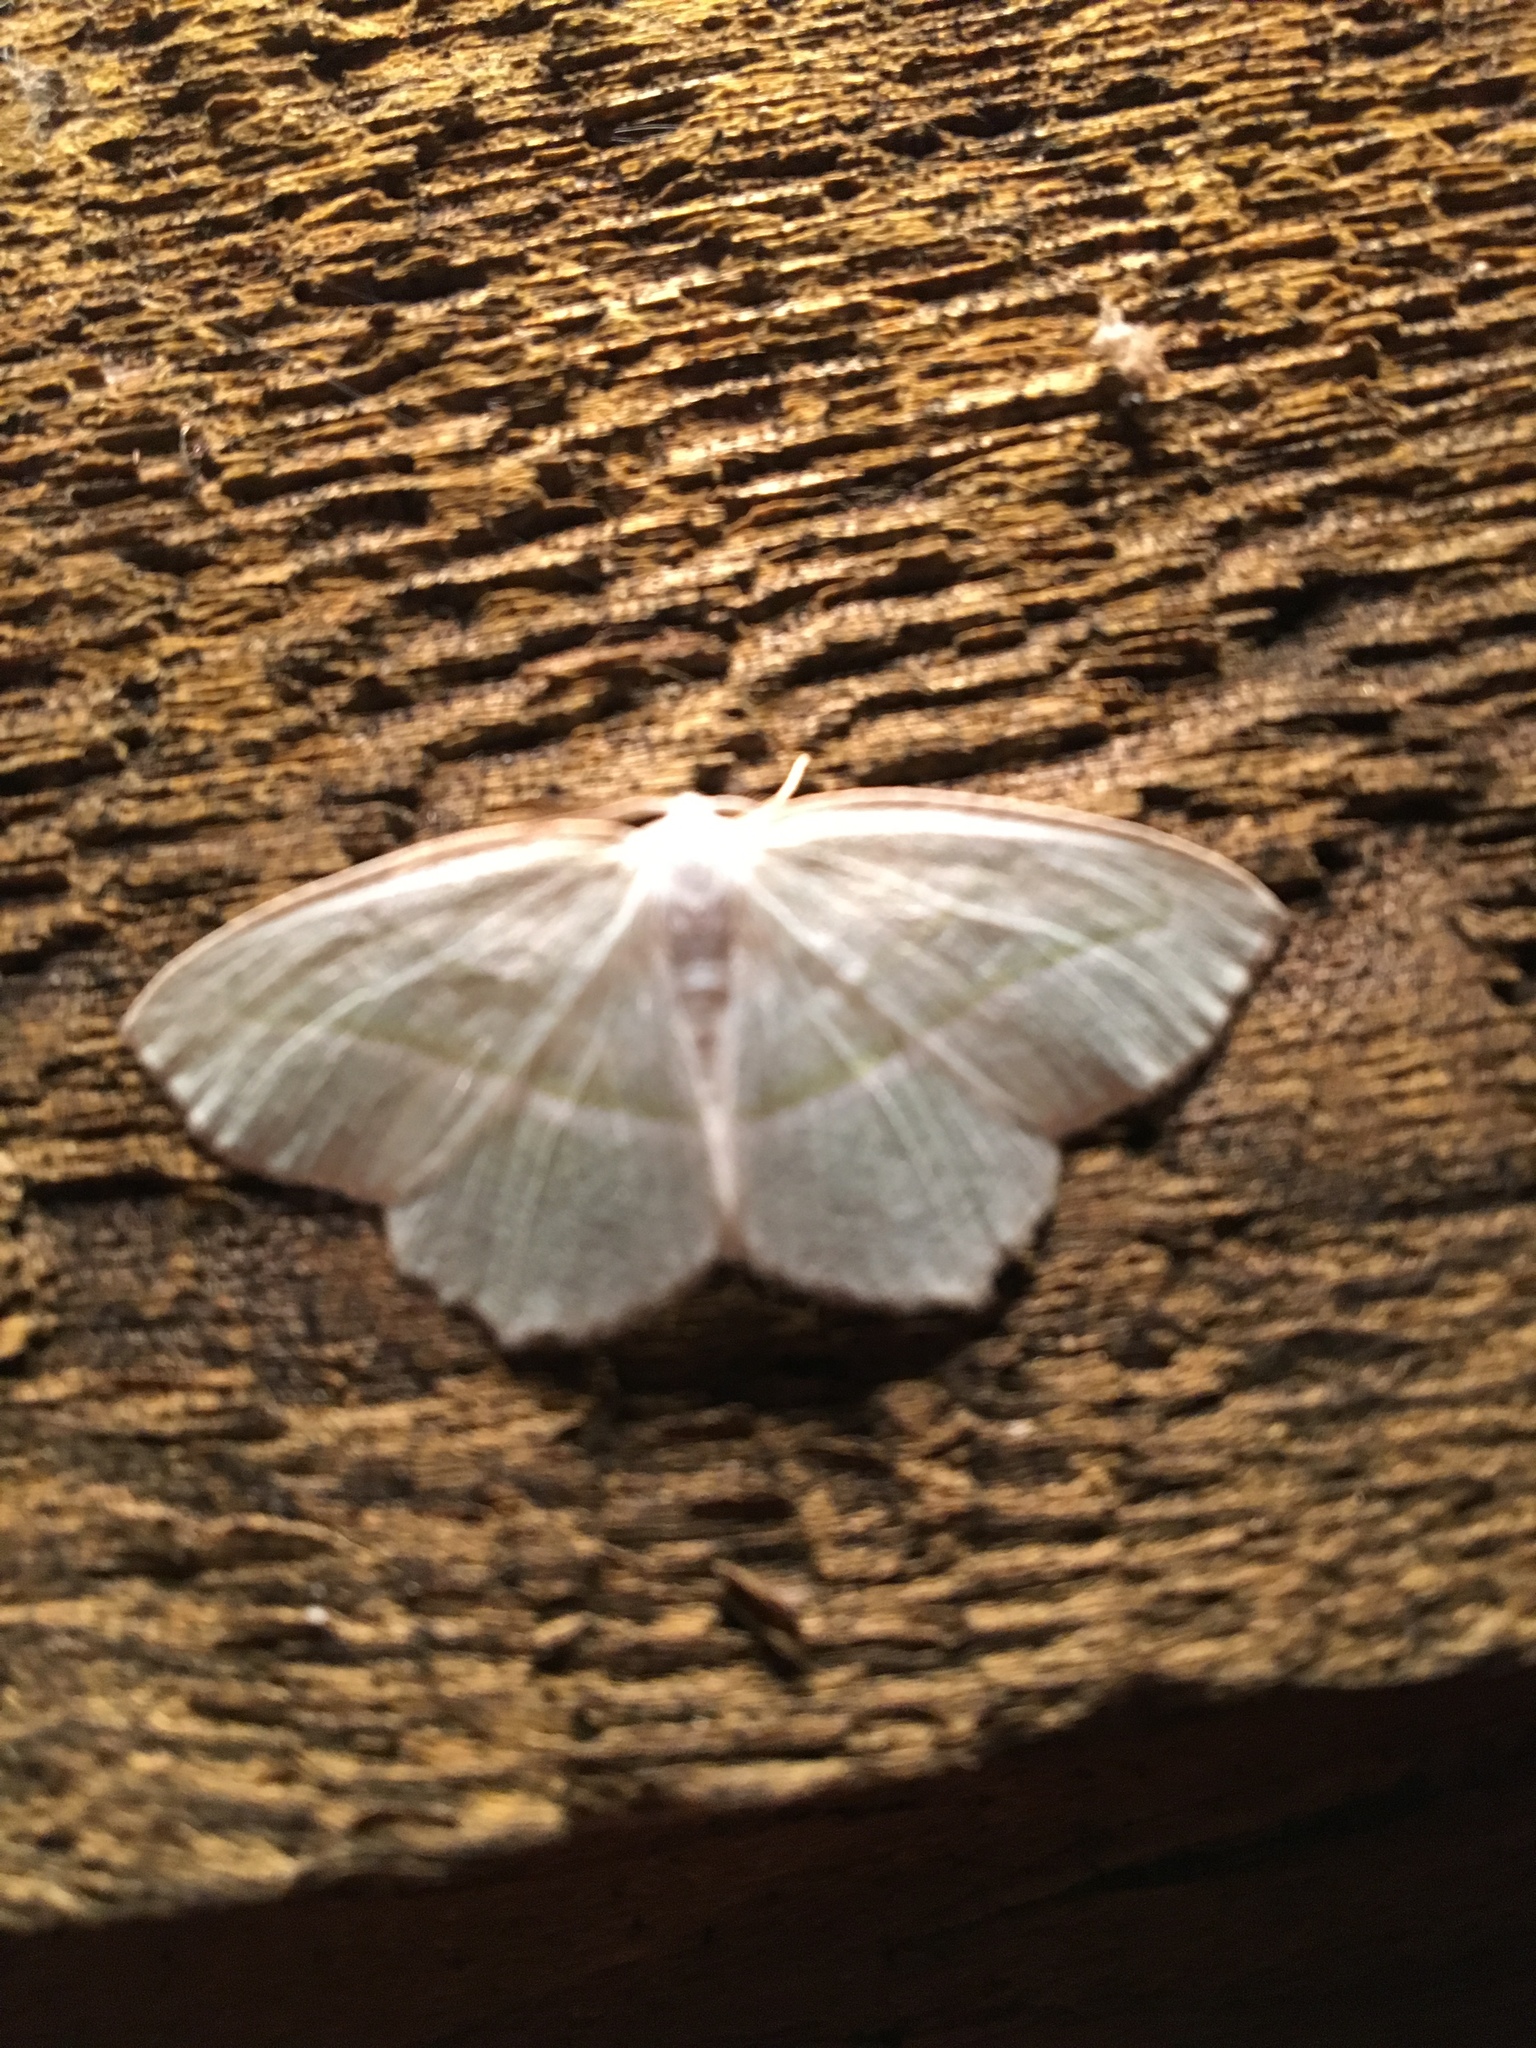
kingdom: Animalia
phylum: Arthropoda
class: Insecta
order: Lepidoptera
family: Geometridae
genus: Campaea
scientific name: Campaea perlata
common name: Fringed looper
